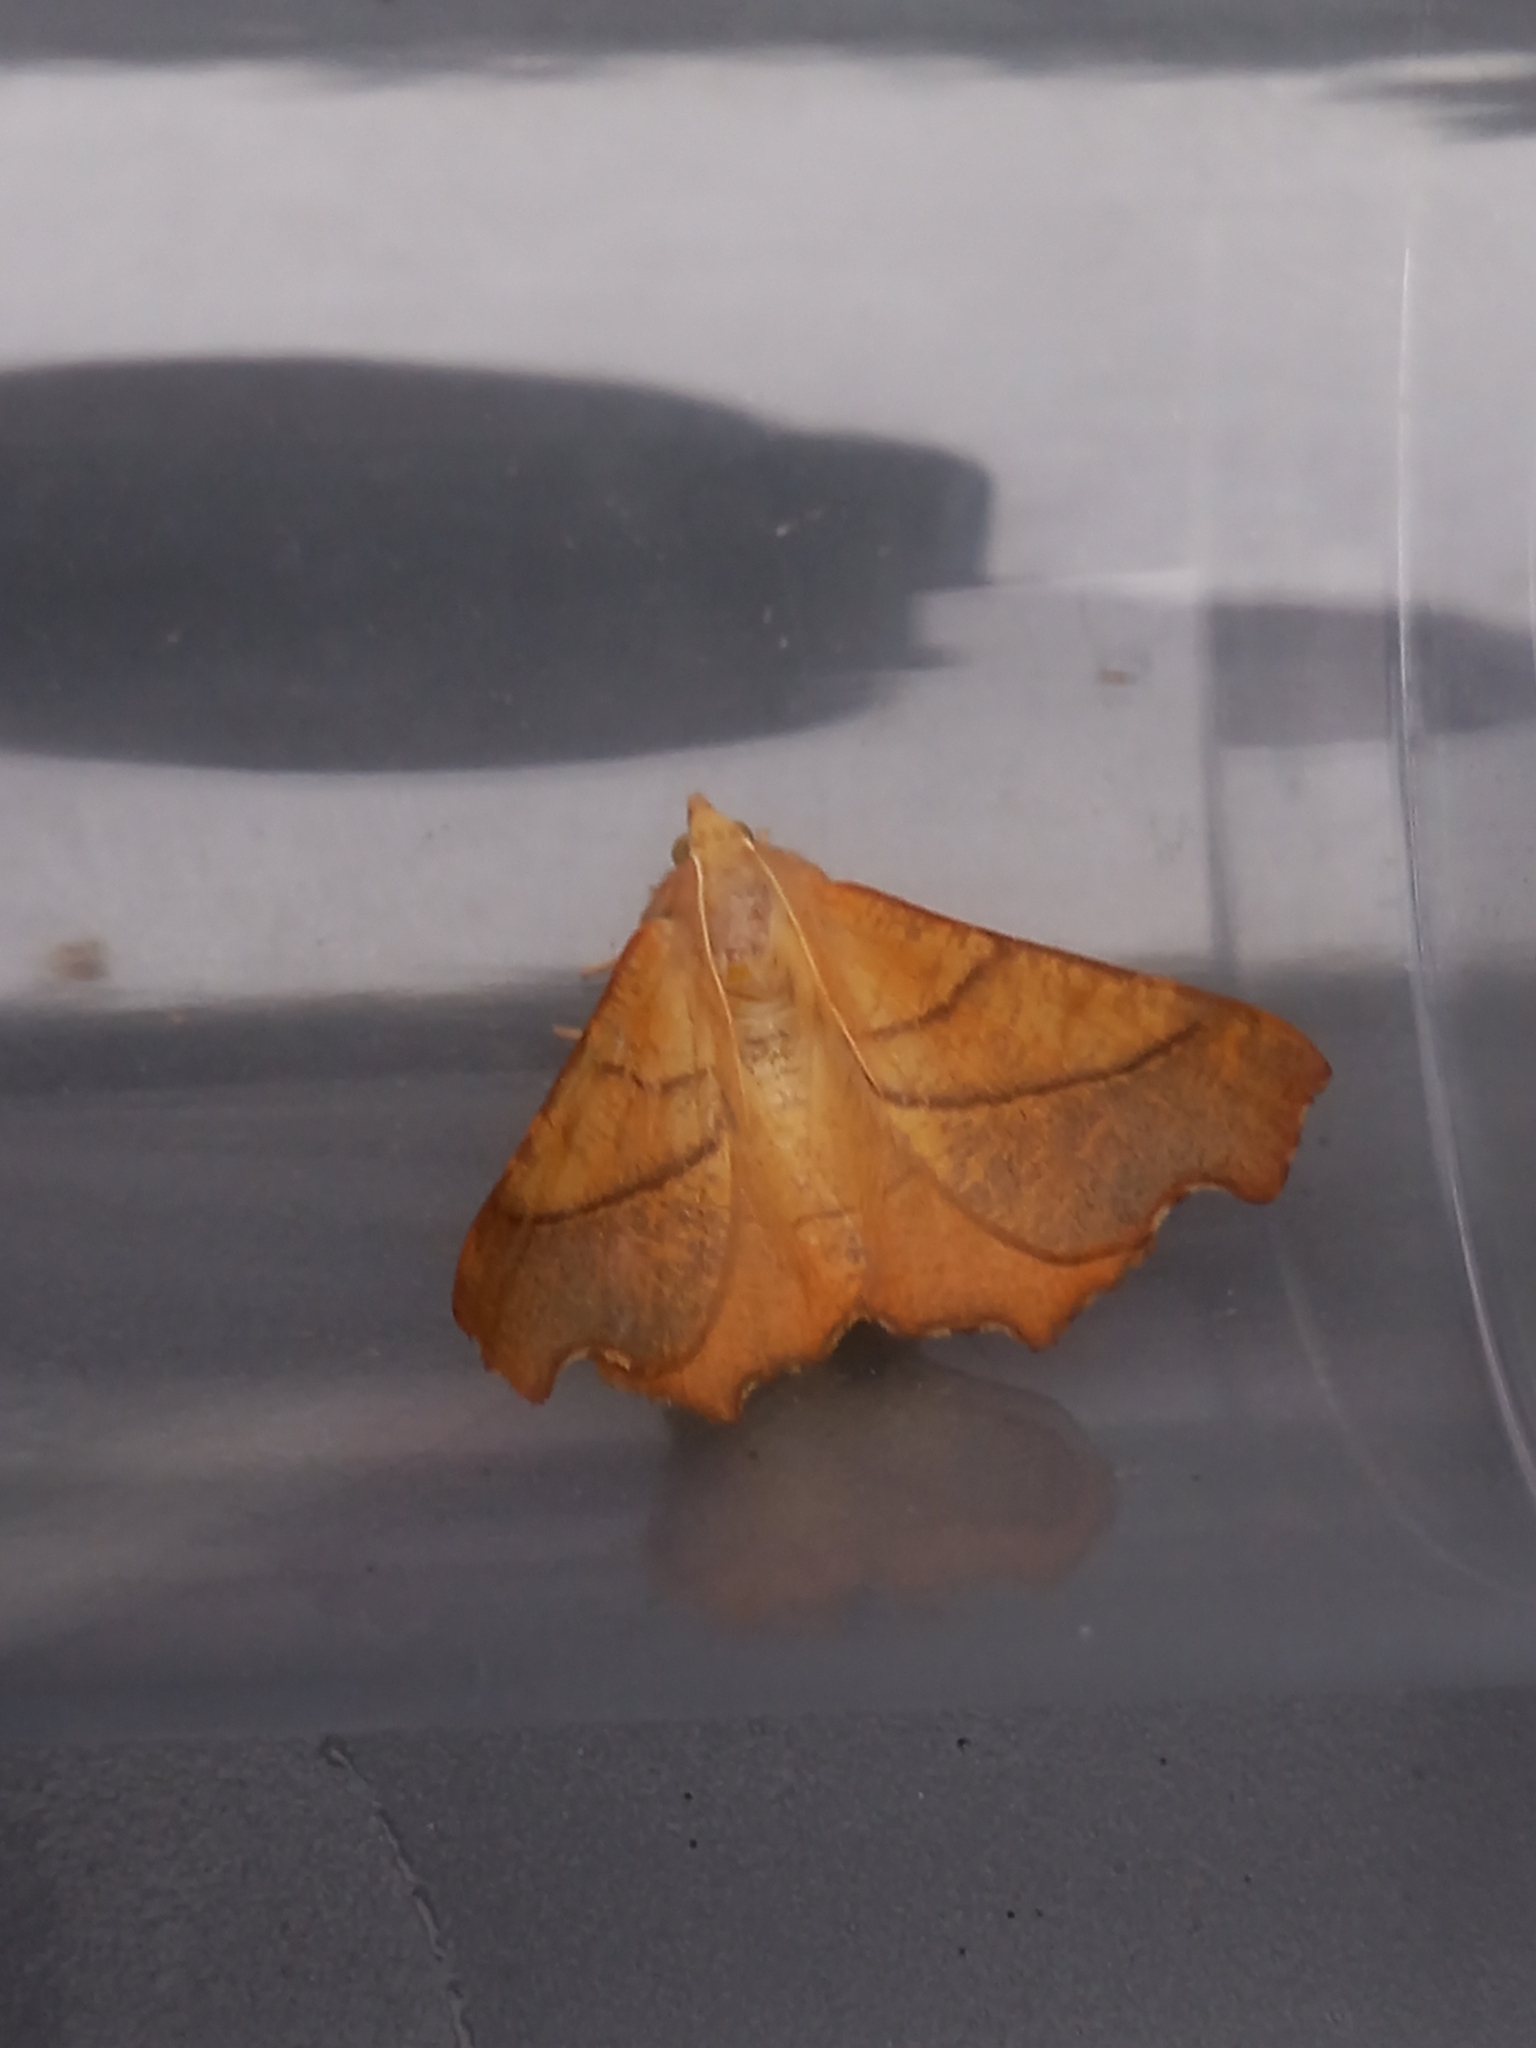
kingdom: Animalia
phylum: Arthropoda
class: Insecta
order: Lepidoptera
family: Geometridae
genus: Ennomos
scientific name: Ennomos fuscantaria
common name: Dusky thorn
